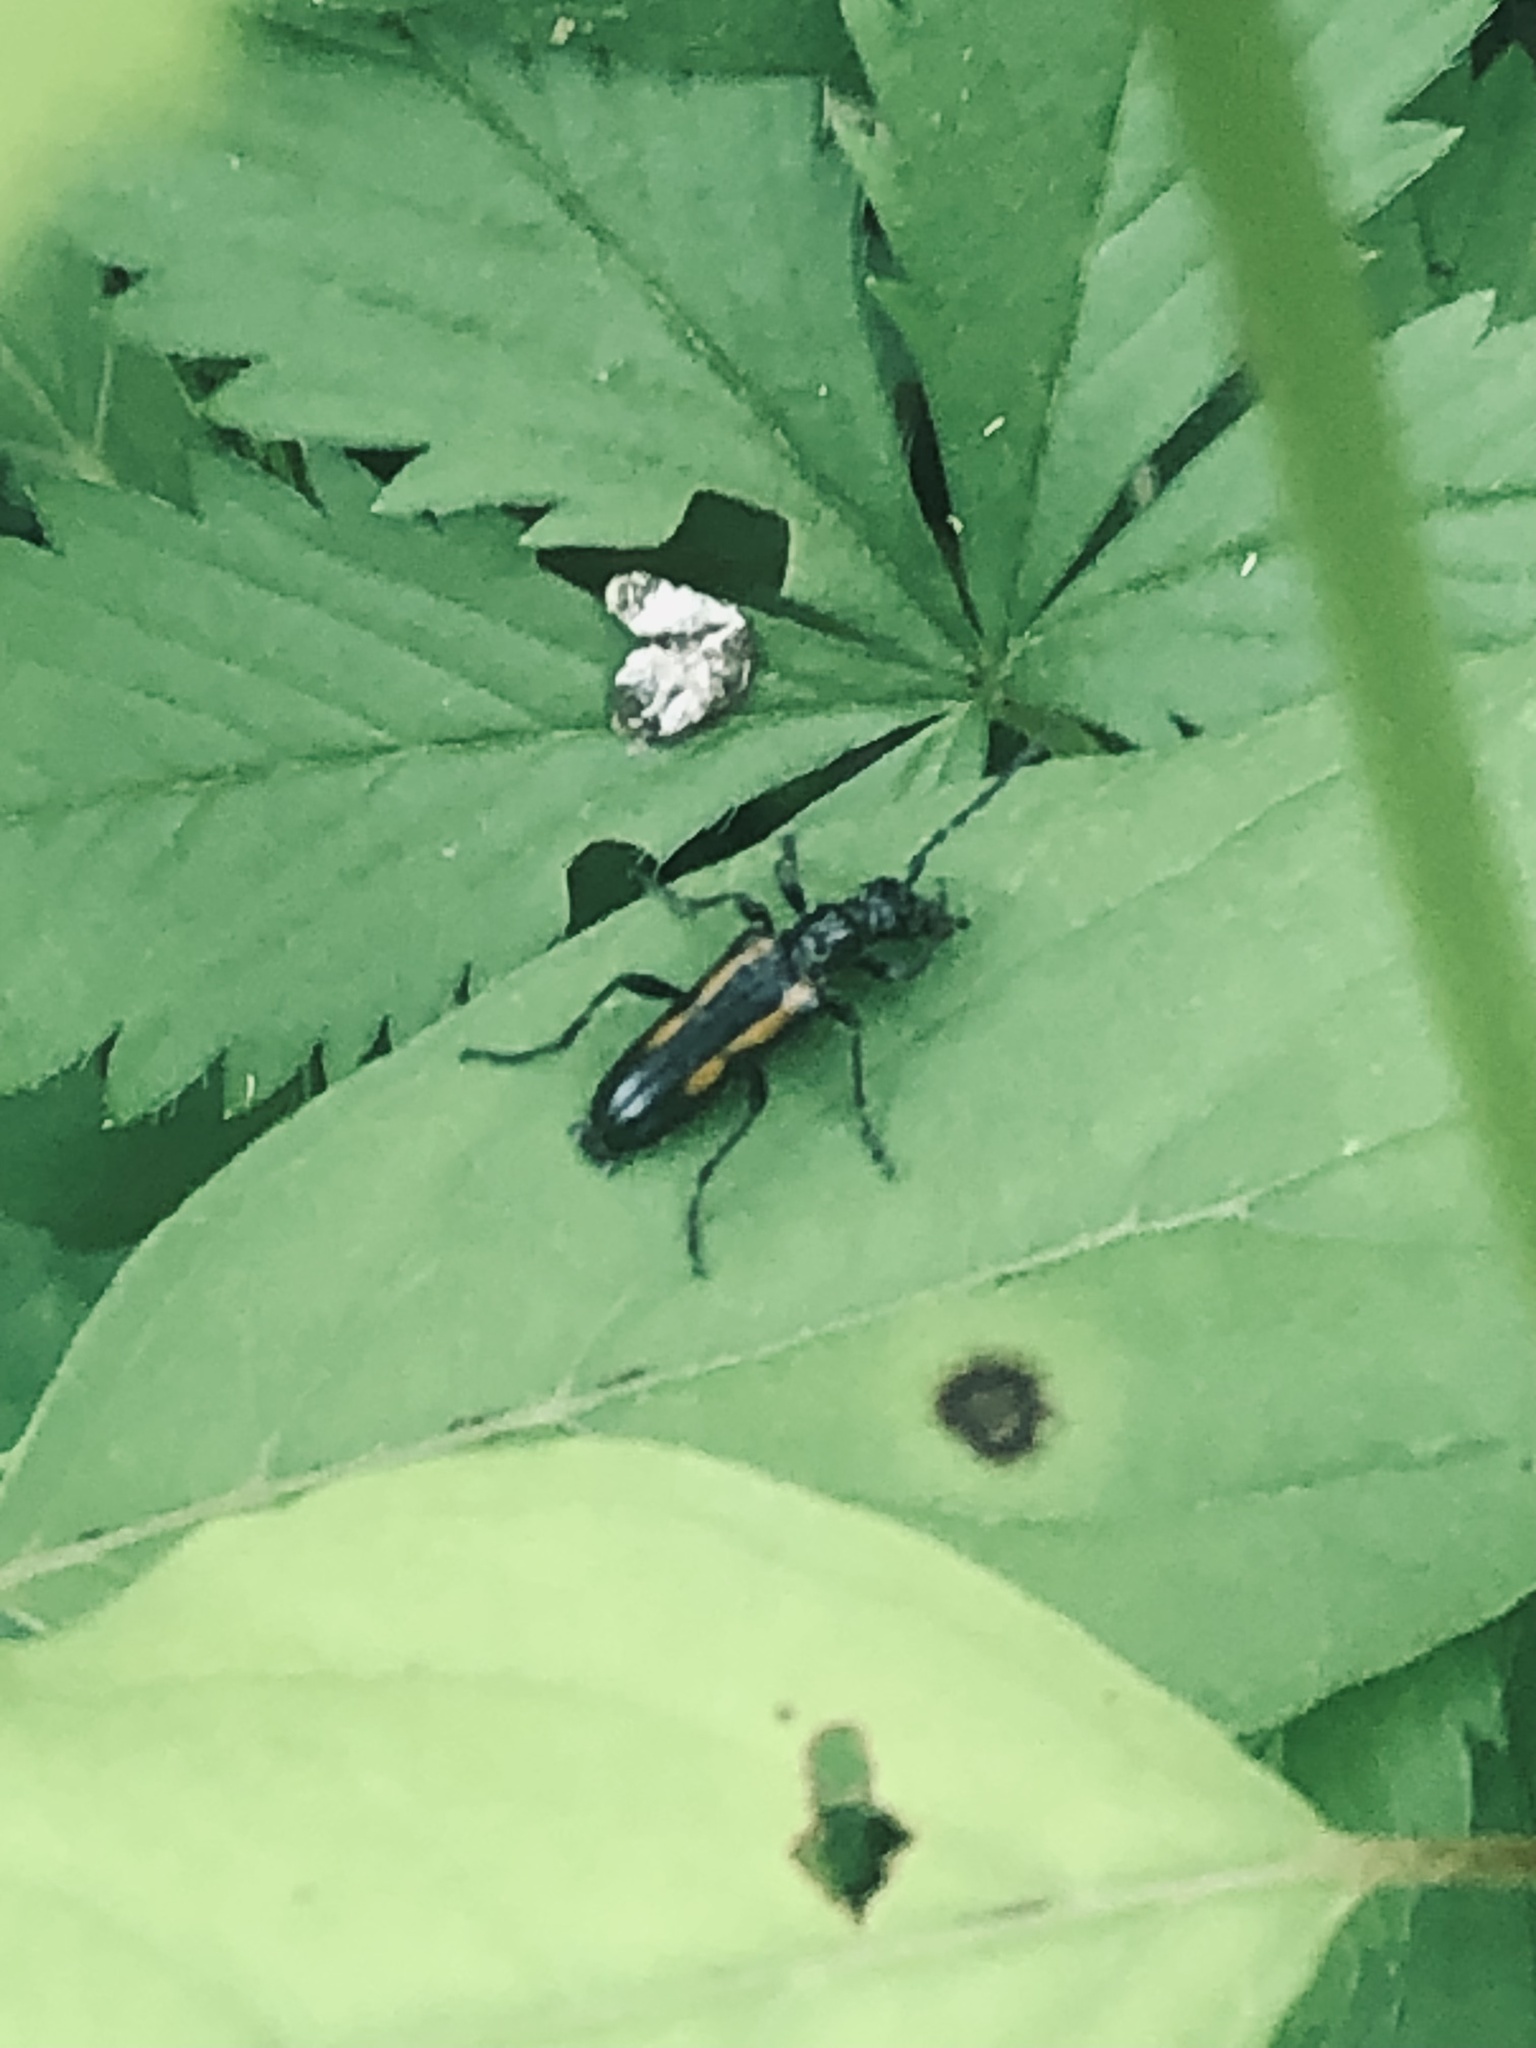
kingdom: Animalia
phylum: Arthropoda
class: Insecta
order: Coleoptera
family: Cerambycidae
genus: Strangalepta
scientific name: Strangalepta abbreviata
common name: Strangalepta flower longhorn beetle
